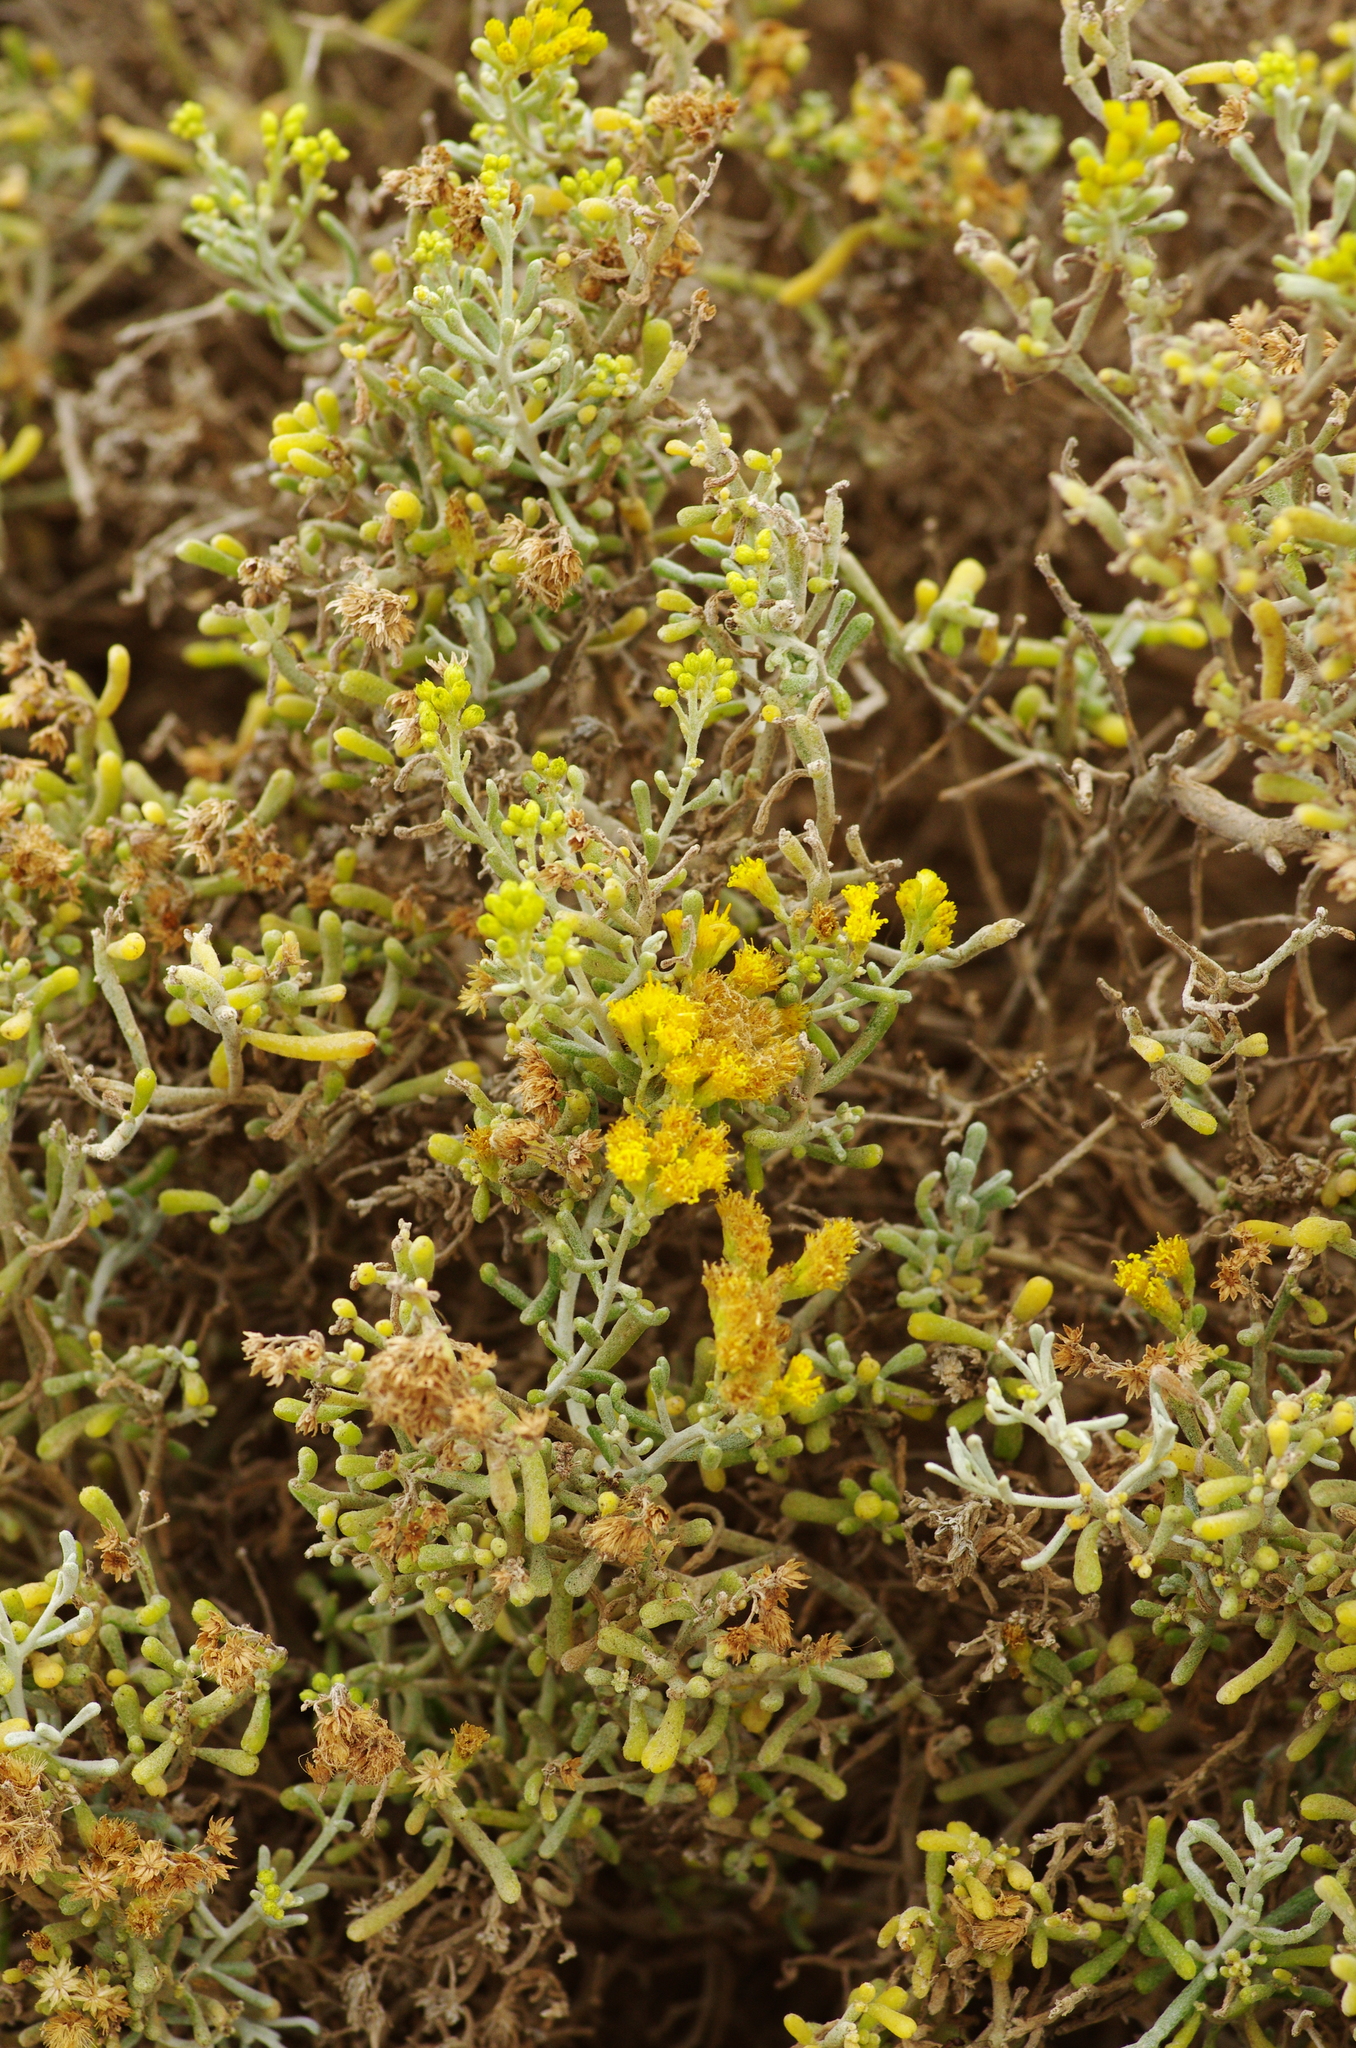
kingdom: Plantae
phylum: Tracheophyta
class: Magnoliopsida
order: Asterales
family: Asteraceae
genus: Schizogyne
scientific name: Schizogyne sericea
